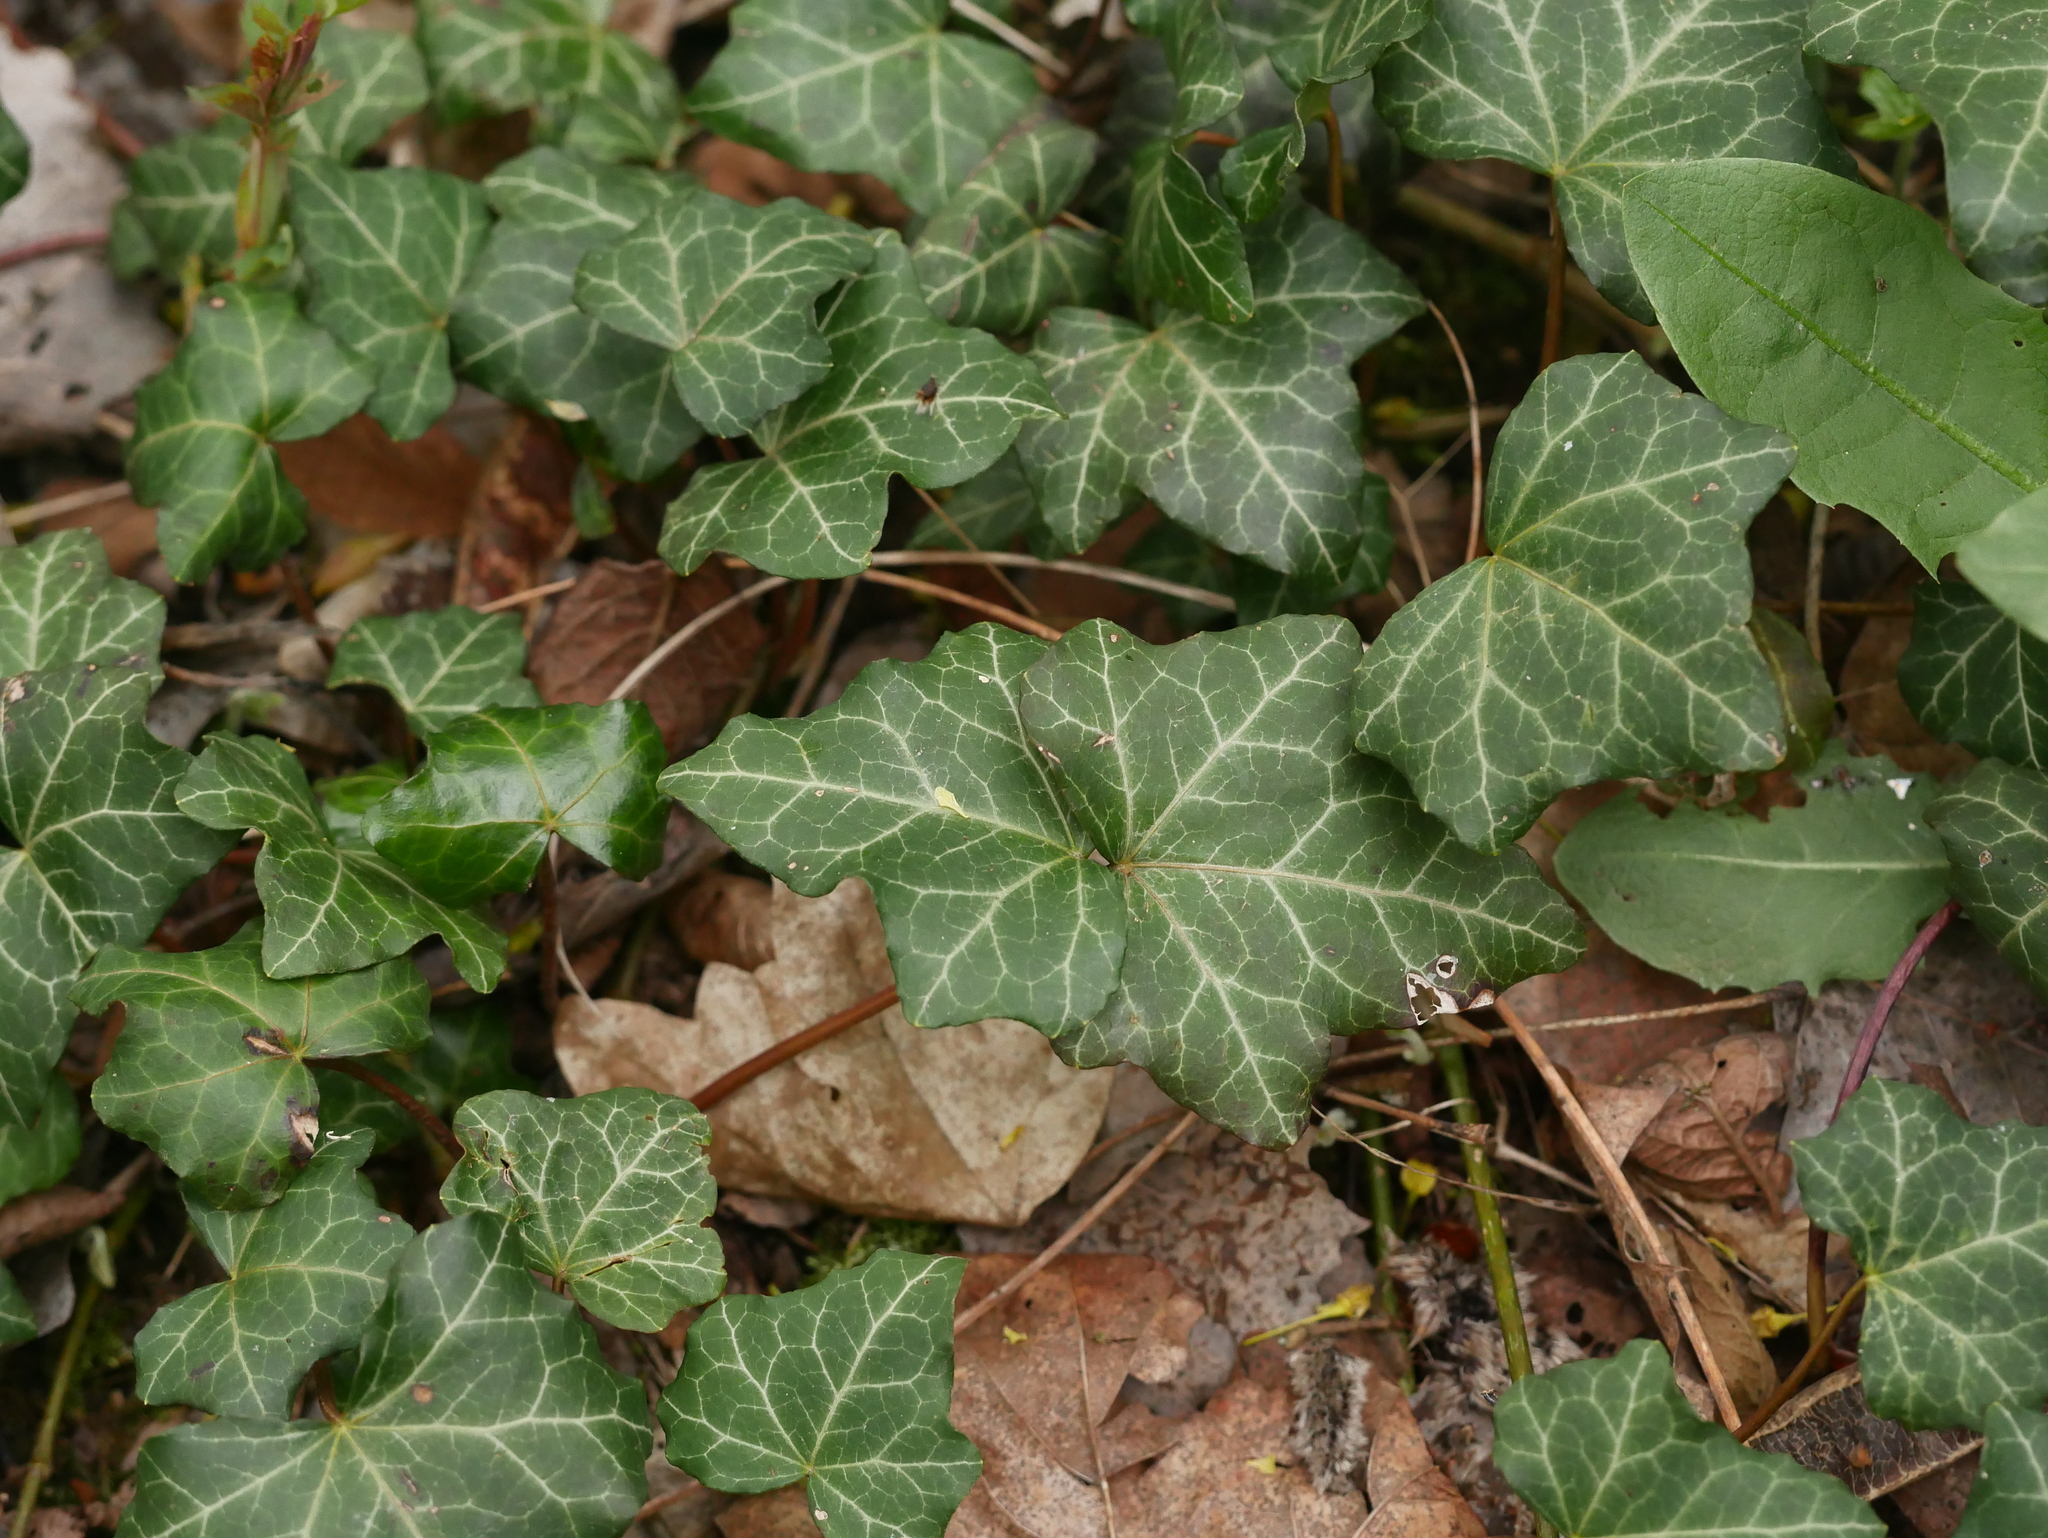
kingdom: Plantae
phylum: Tracheophyta
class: Magnoliopsida
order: Apiales
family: Araliaceae
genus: Hedera
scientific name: Hedera helix
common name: Ivy
